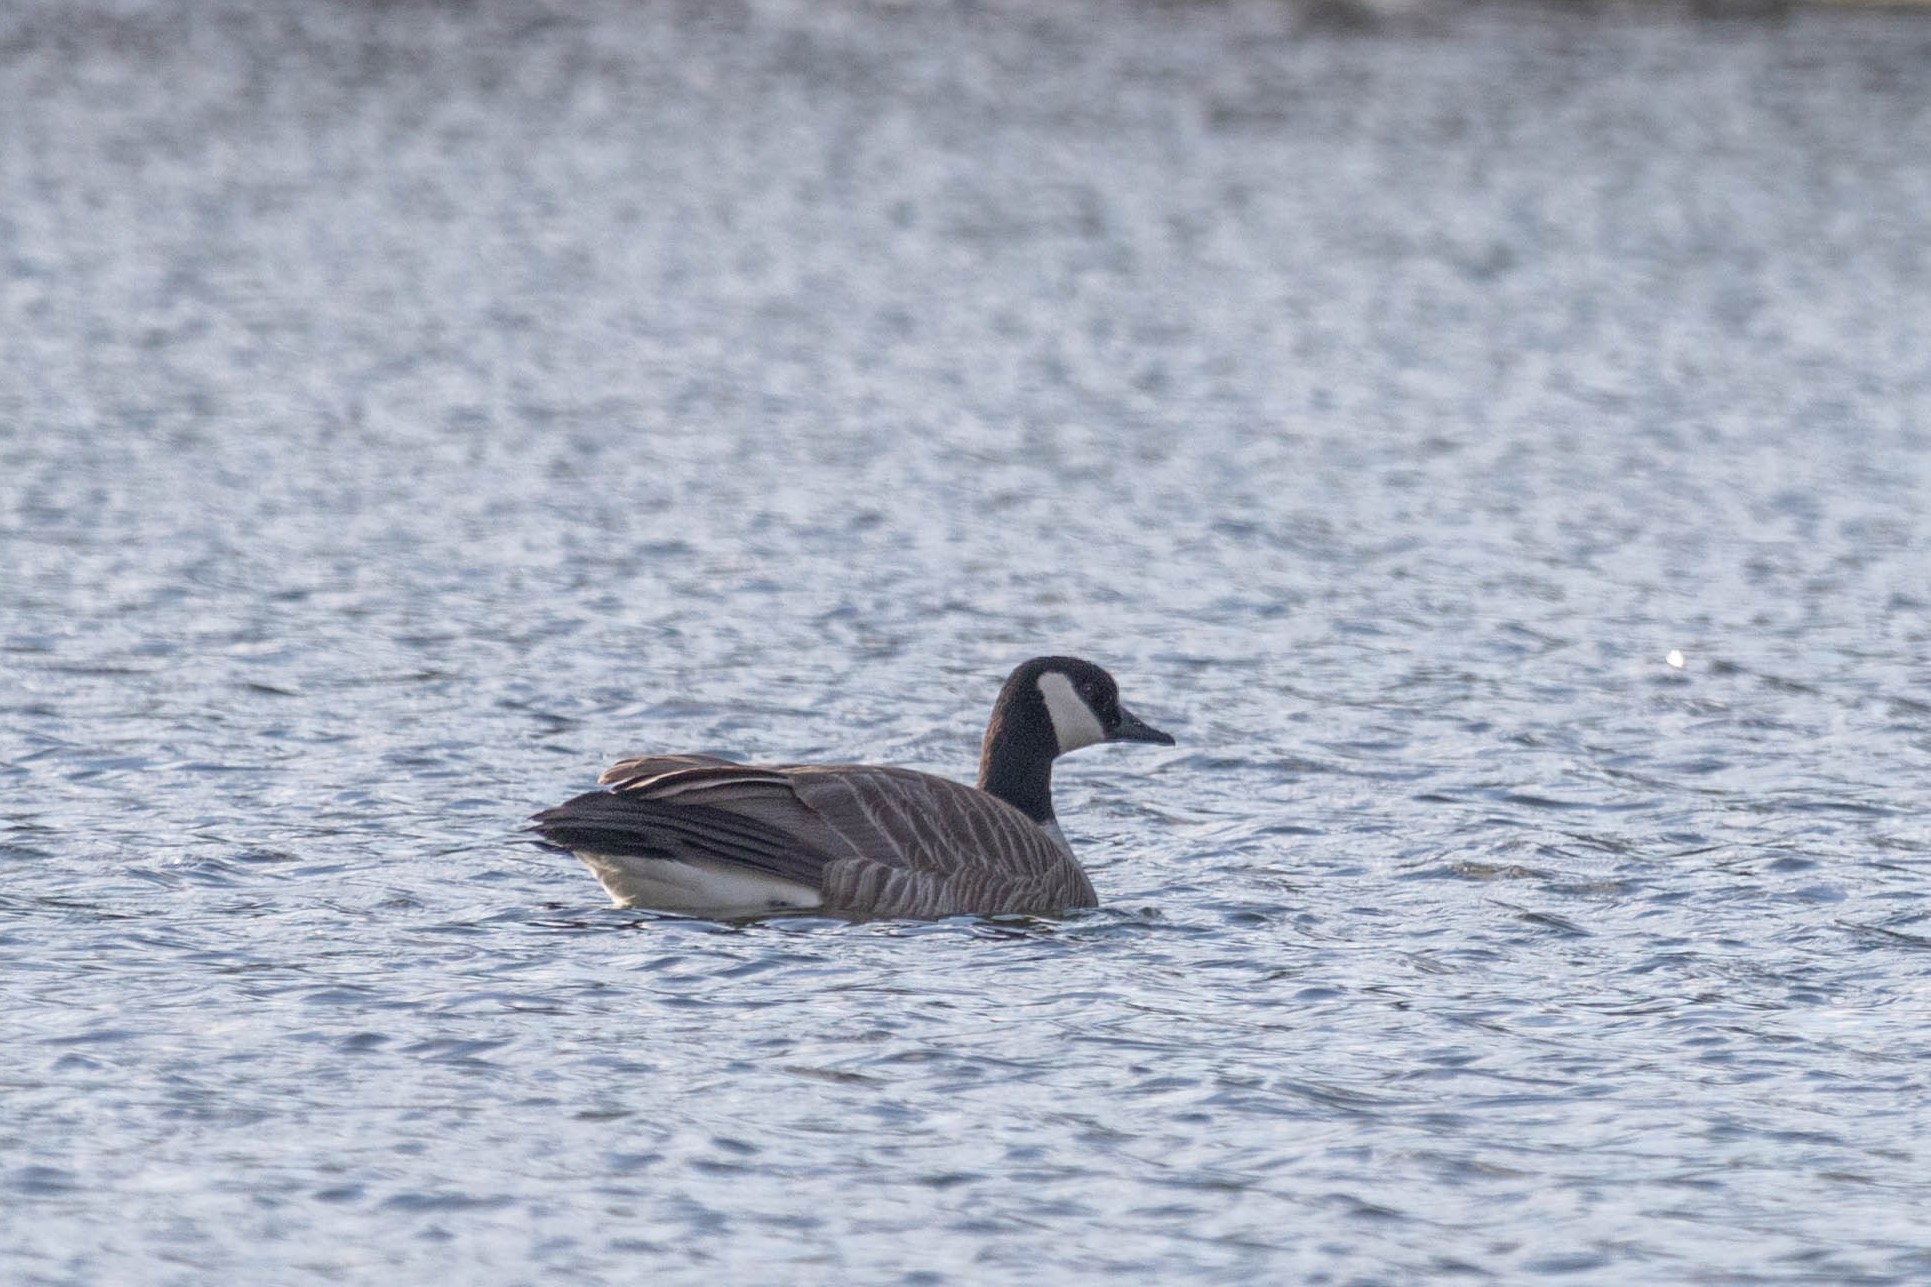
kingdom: Animalia
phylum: Chordata
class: Aves
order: Anseriformes
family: Anatidae
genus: Branta
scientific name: Branta canadensis
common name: Canada goose
